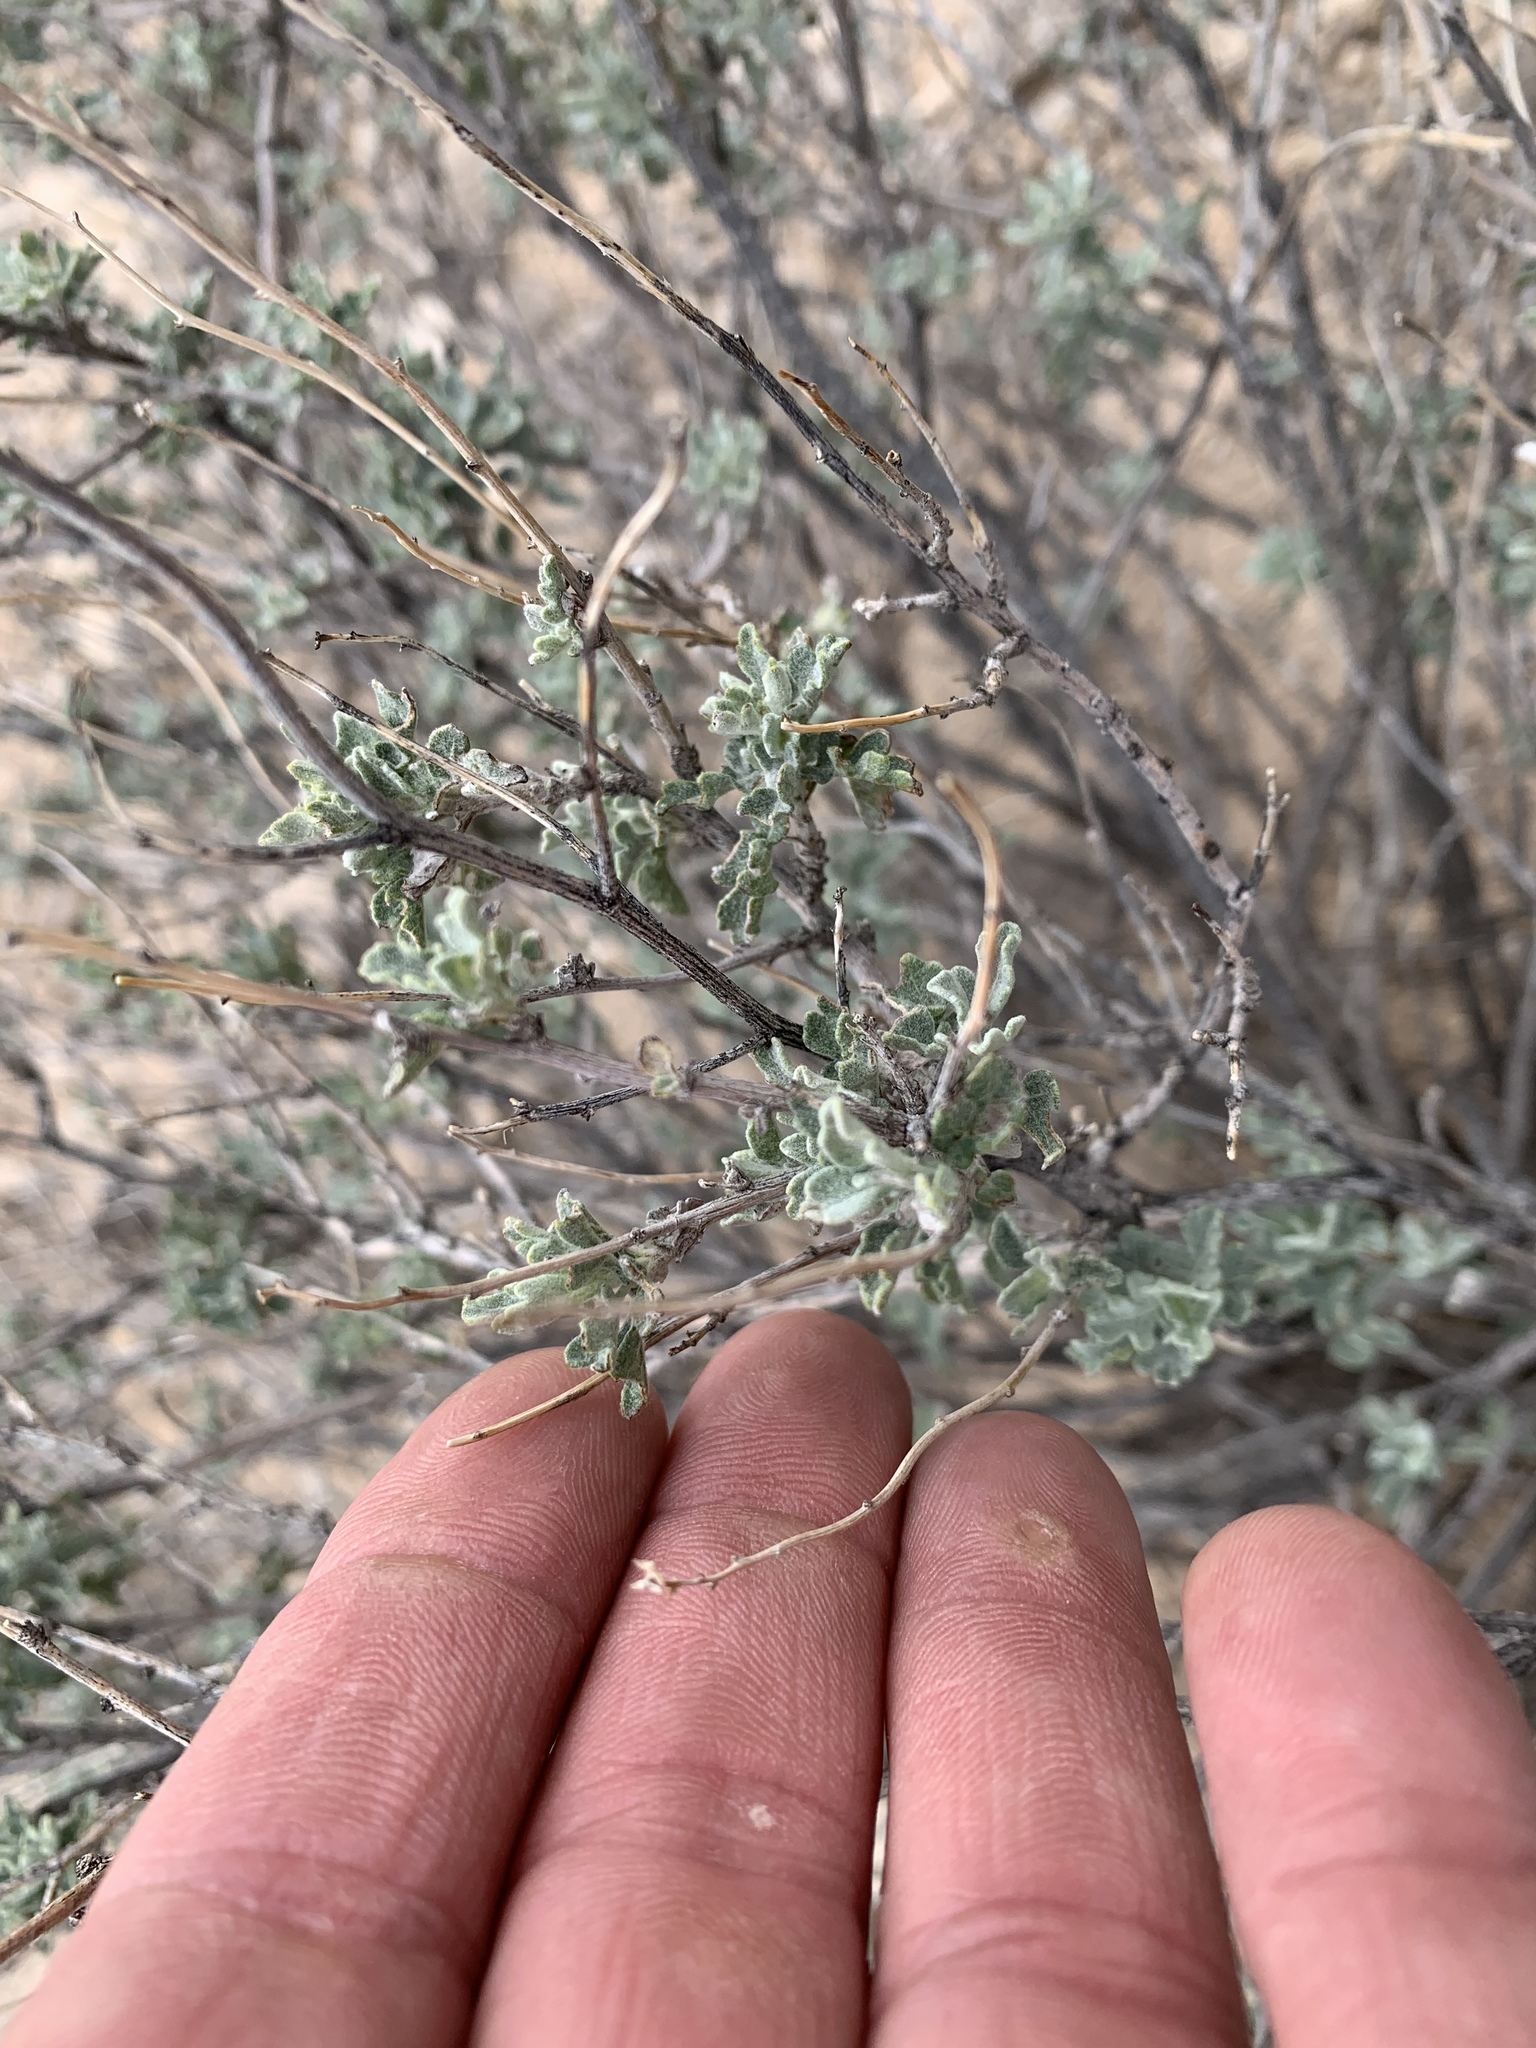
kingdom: Plantae
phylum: Tracheophyta
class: Magnoliopsida
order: Asterales
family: Asteraceae
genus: Parthenium
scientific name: Parthenium incanum
